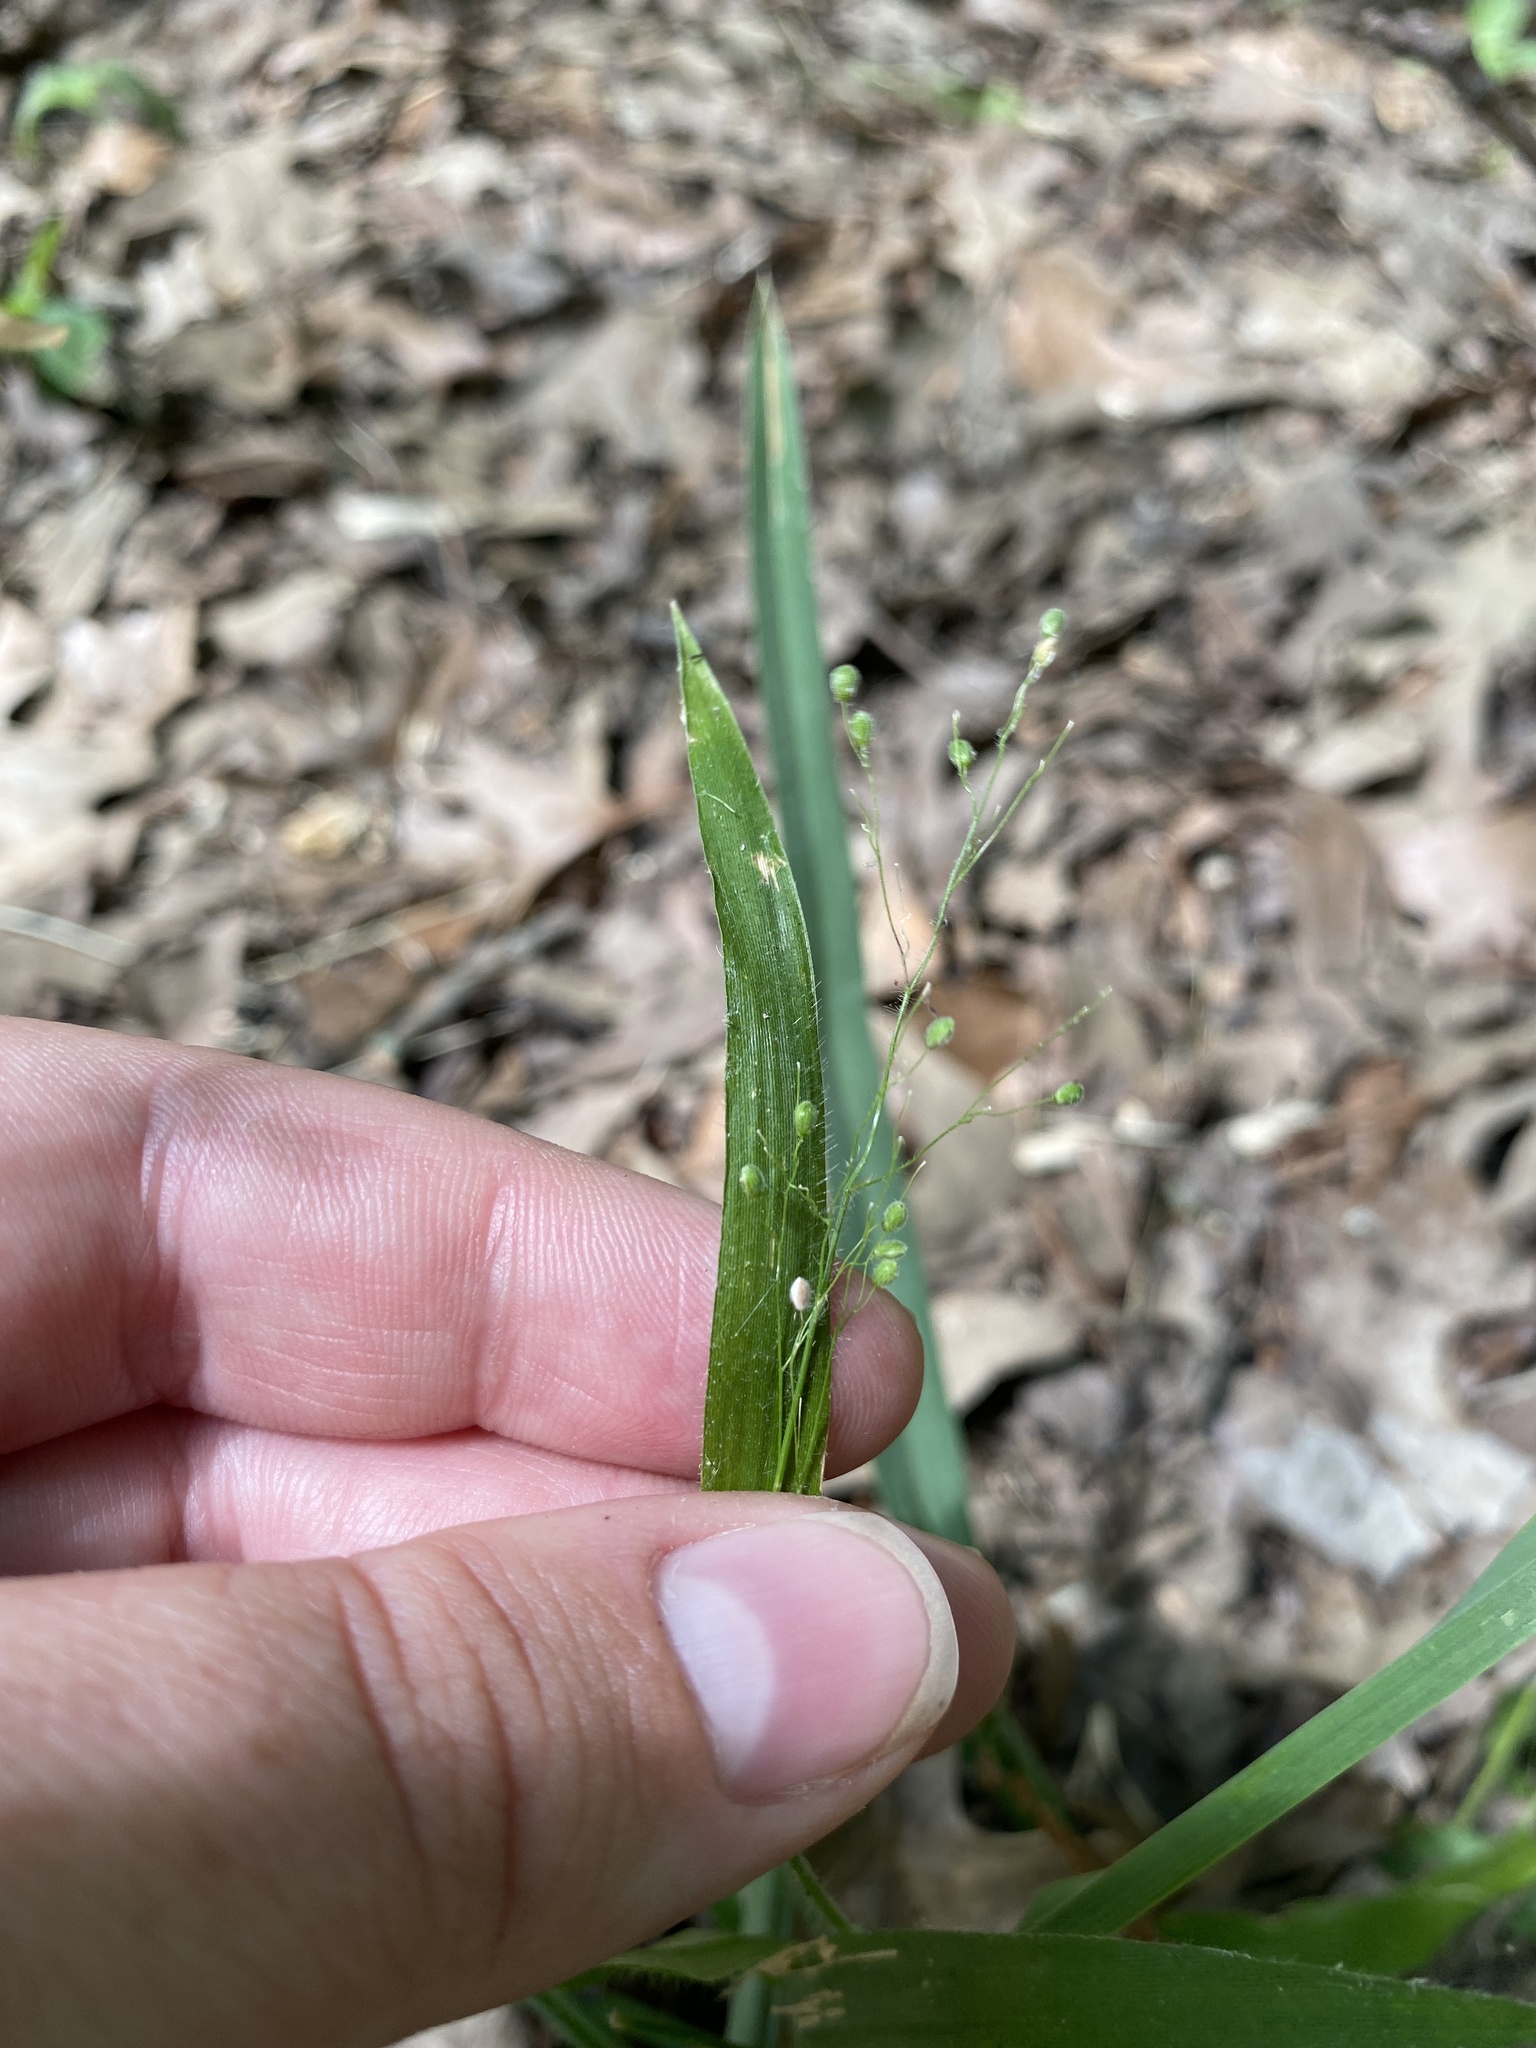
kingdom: Plantae
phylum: Tracheophyta
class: Liliopsida
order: Poales
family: Poaceae
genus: Dichanthelium
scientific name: Dichanthelium laxiflorum
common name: Soft-tuft panic grass
